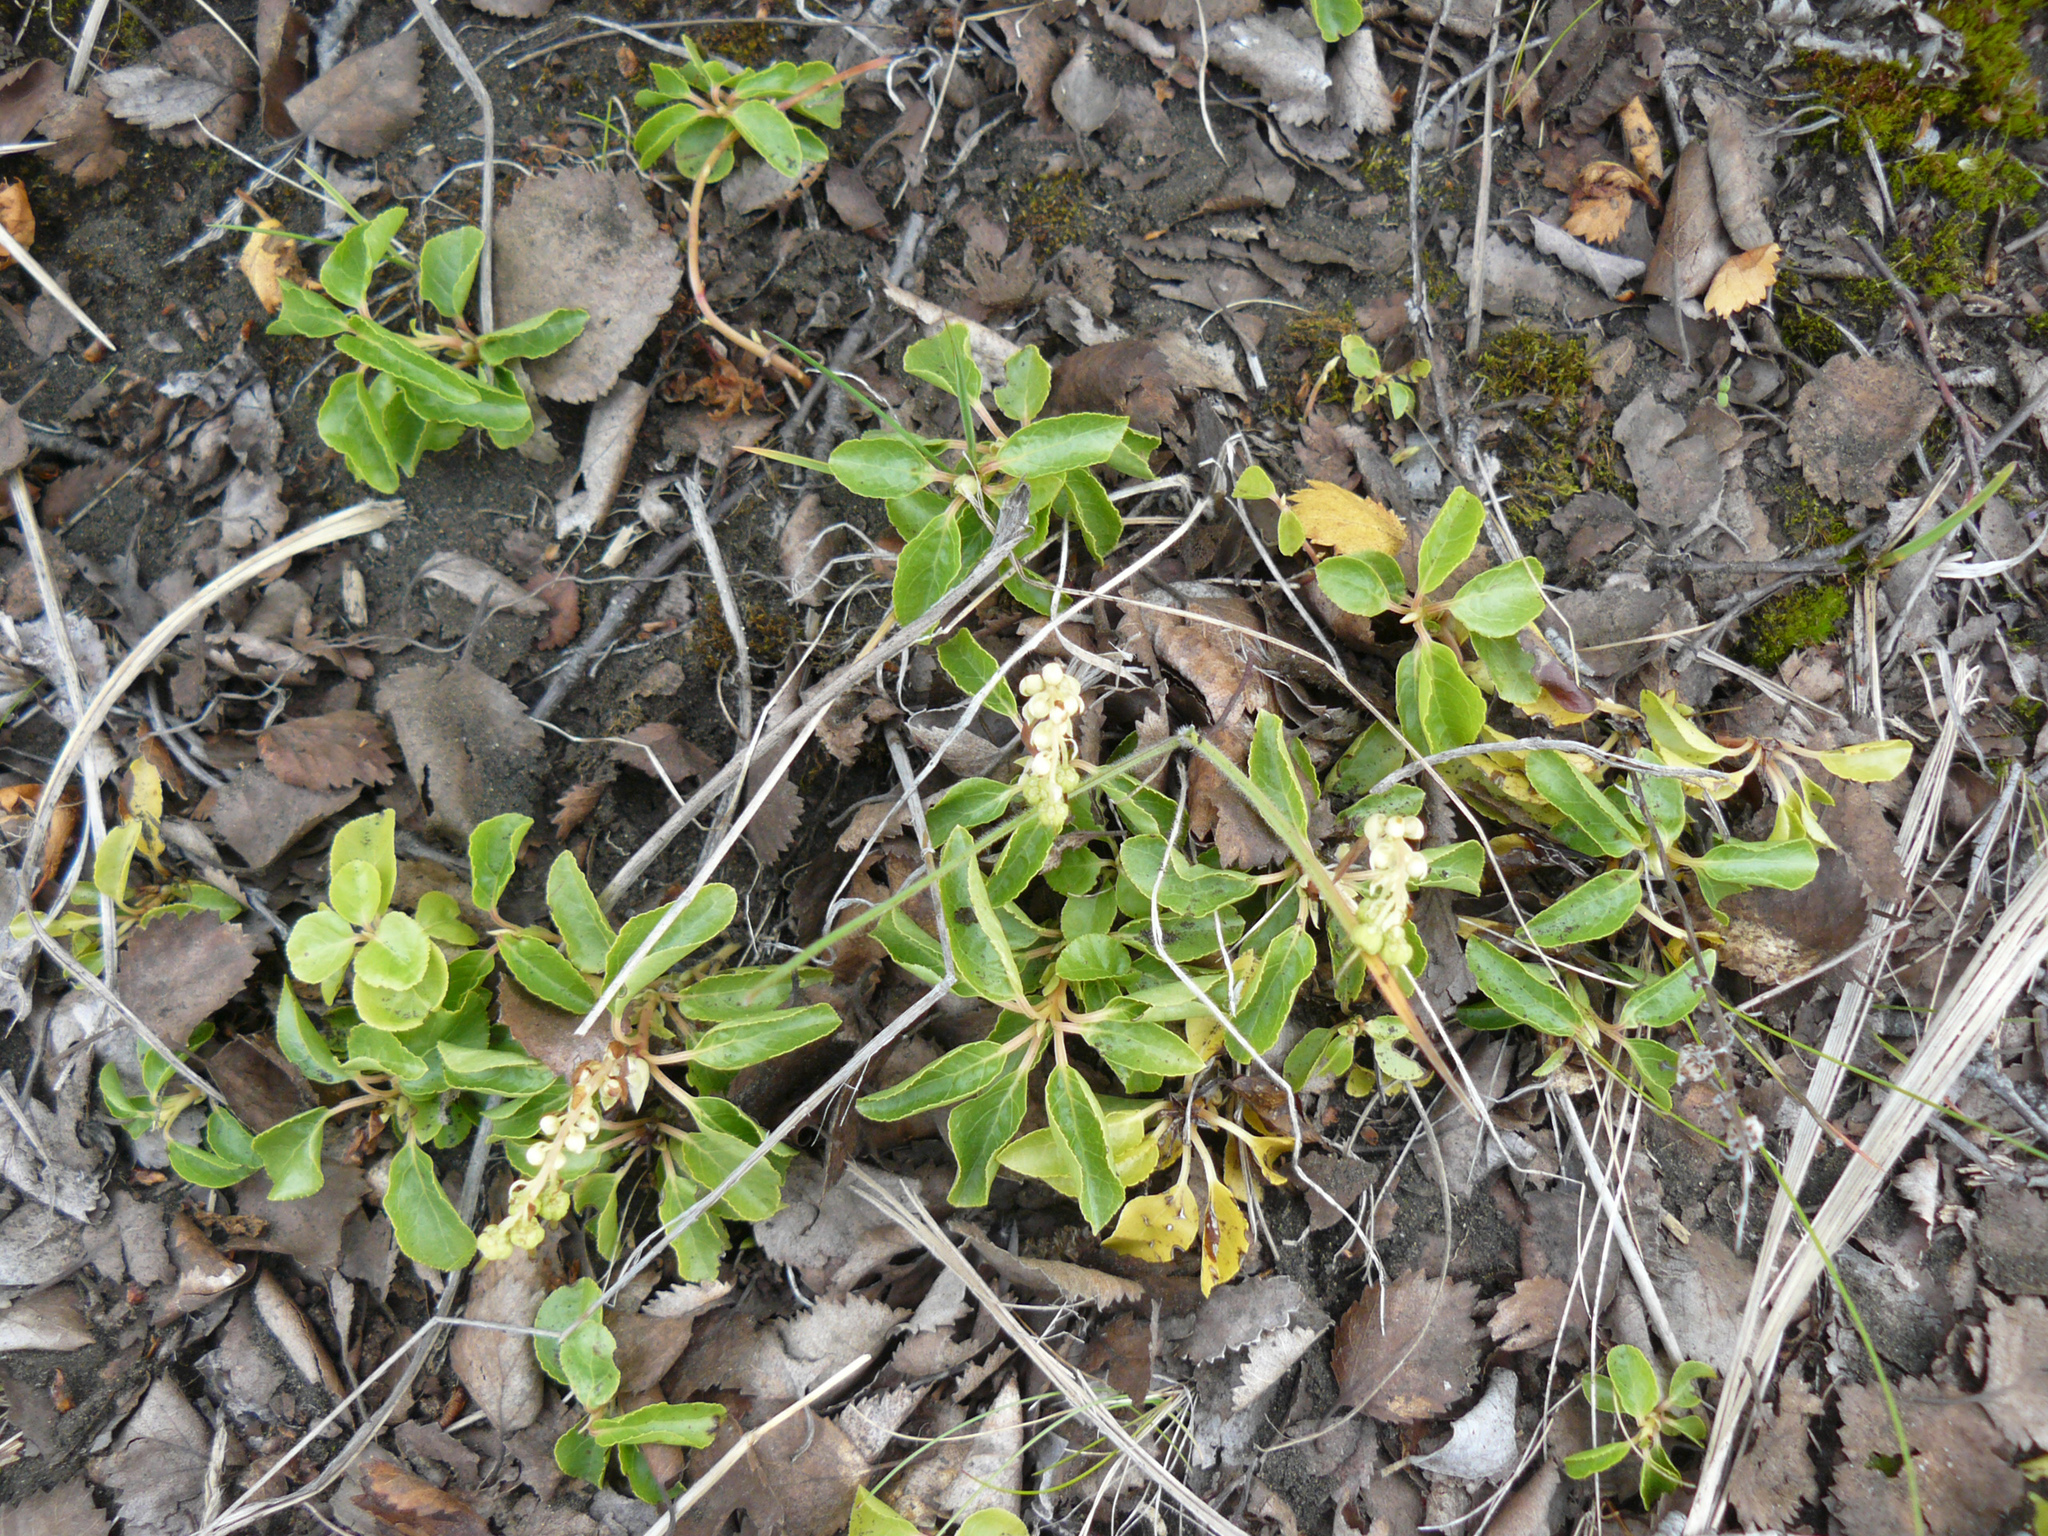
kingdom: Plantae
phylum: Tracheophyta
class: Magnoliopsida
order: Ericales
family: Ericaceae
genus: Orthilia
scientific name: Orthilia secunda
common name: One-sided orthilia
